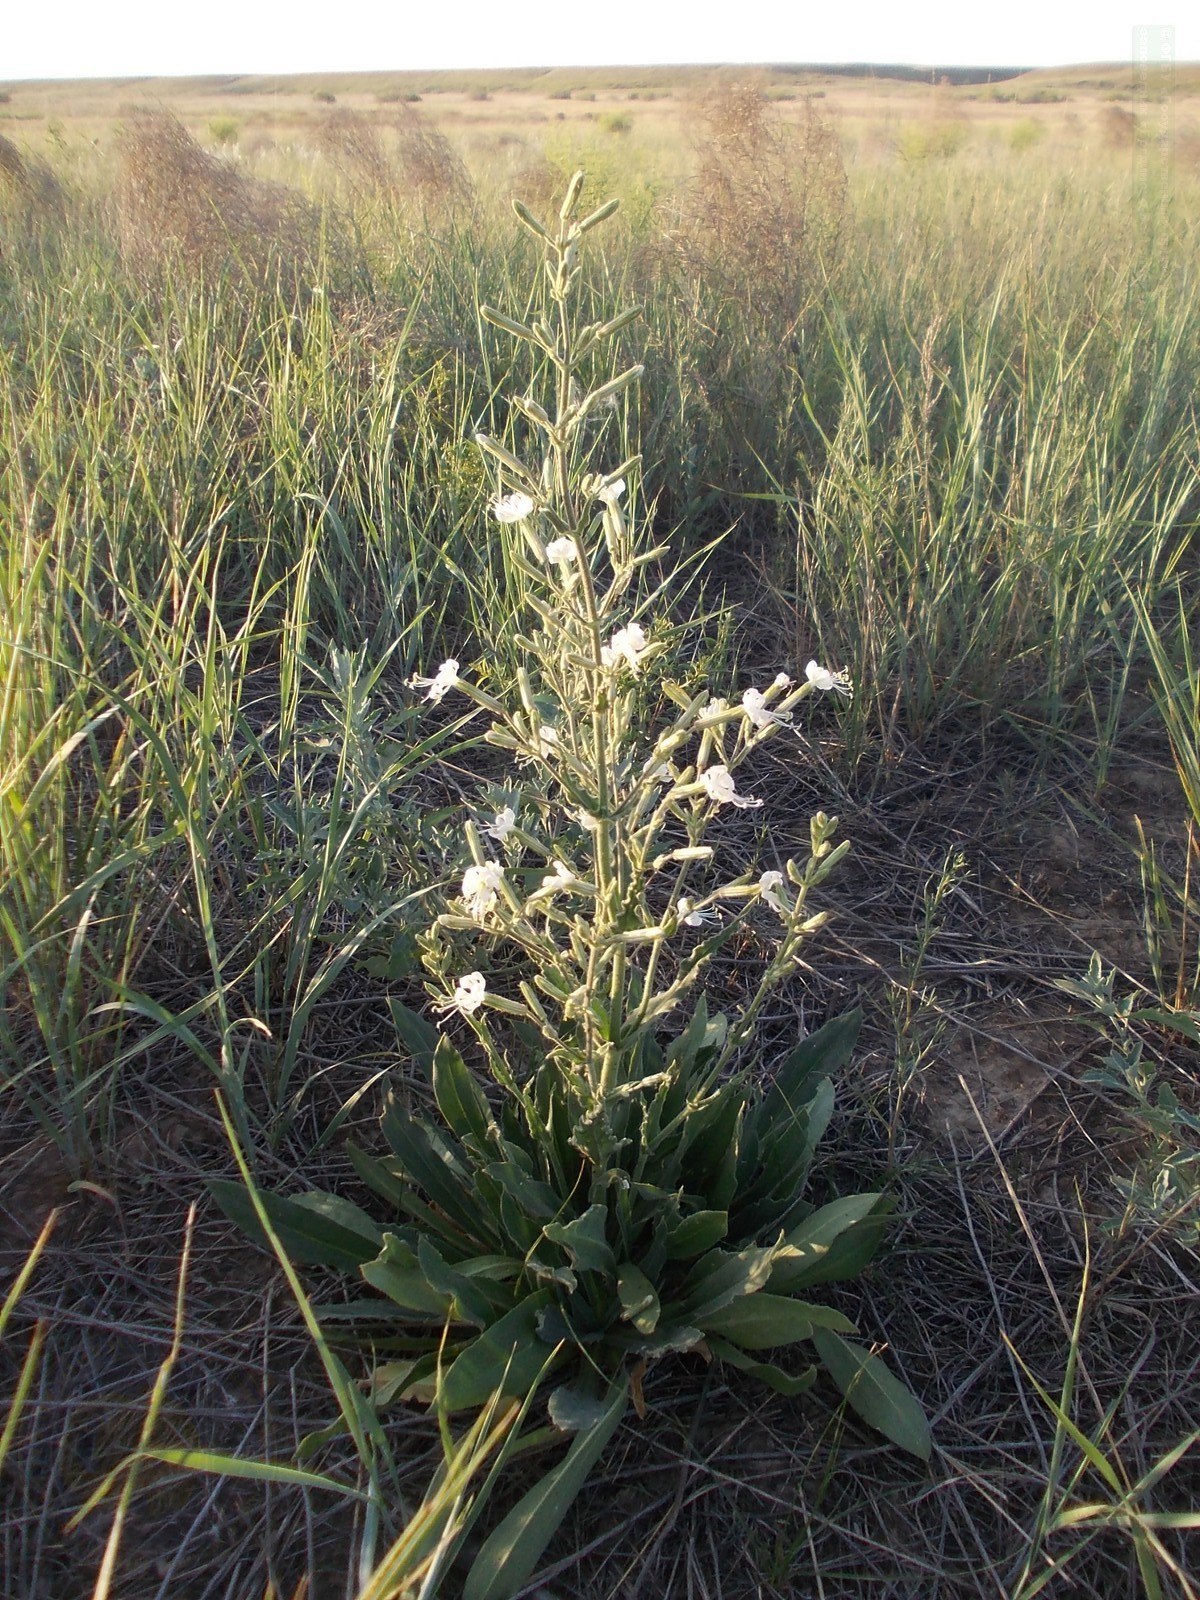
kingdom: Plantae
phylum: Tracheophyta
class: Magnoliopsida
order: Caryophyllales
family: Caryophyllaceae
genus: Silene
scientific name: Silene viscosa
